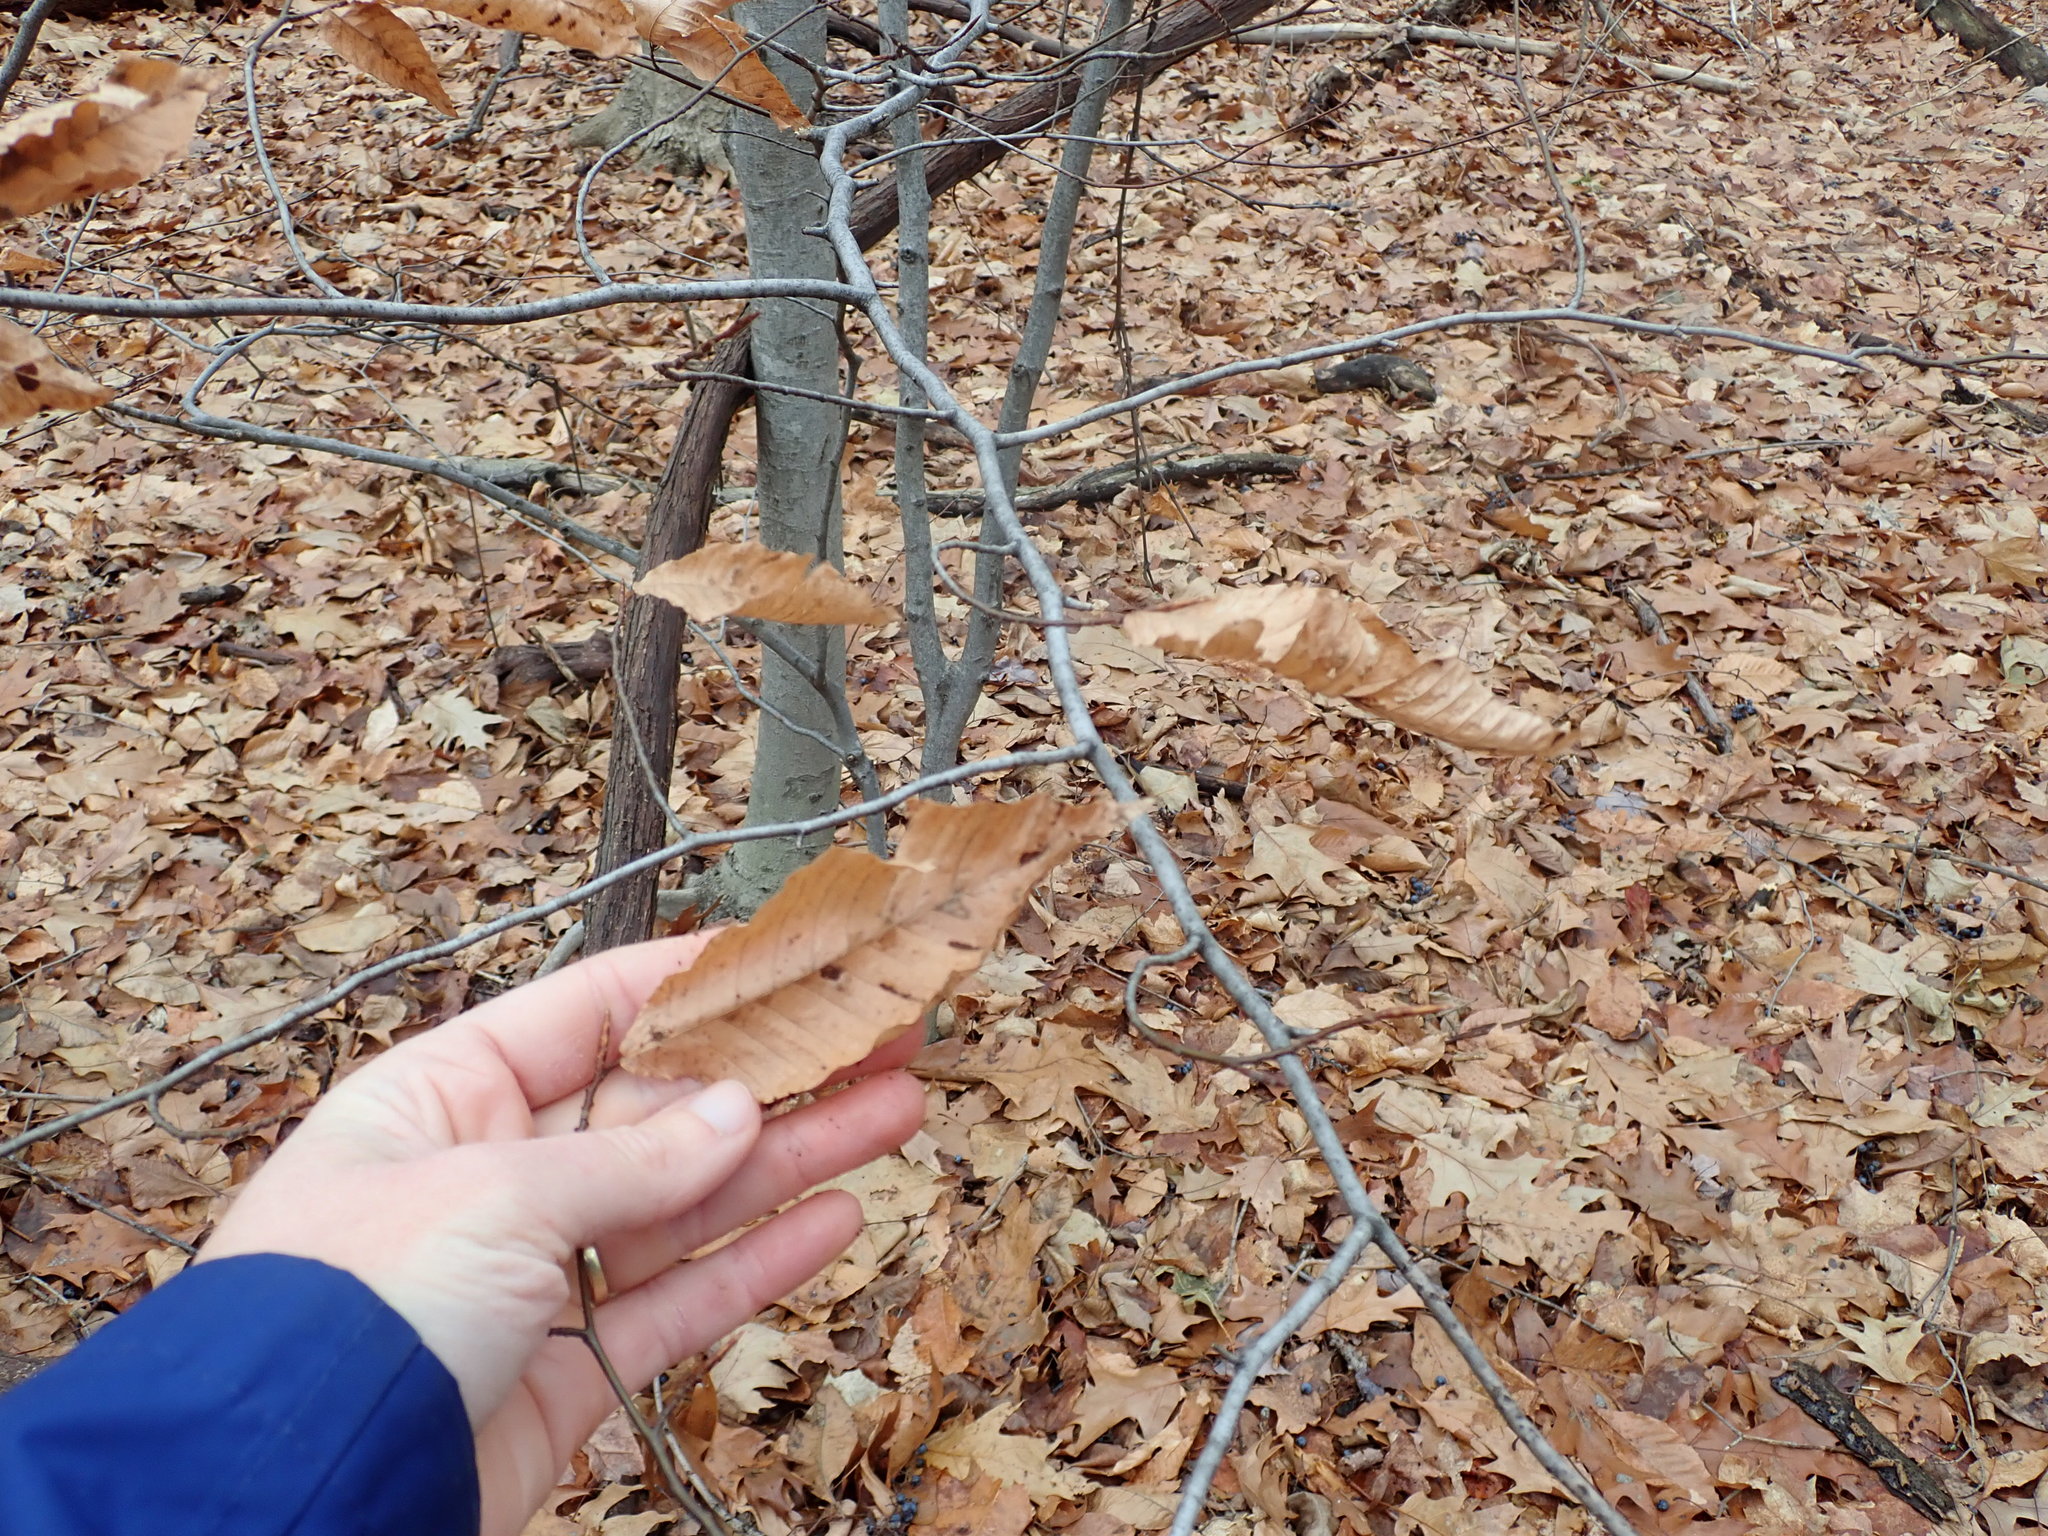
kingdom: Plantae
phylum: Tracheophyta
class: Magnoliopsida
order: Fagales
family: Fagaceae
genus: Fagus
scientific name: Fagus grandifolia
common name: American beech
